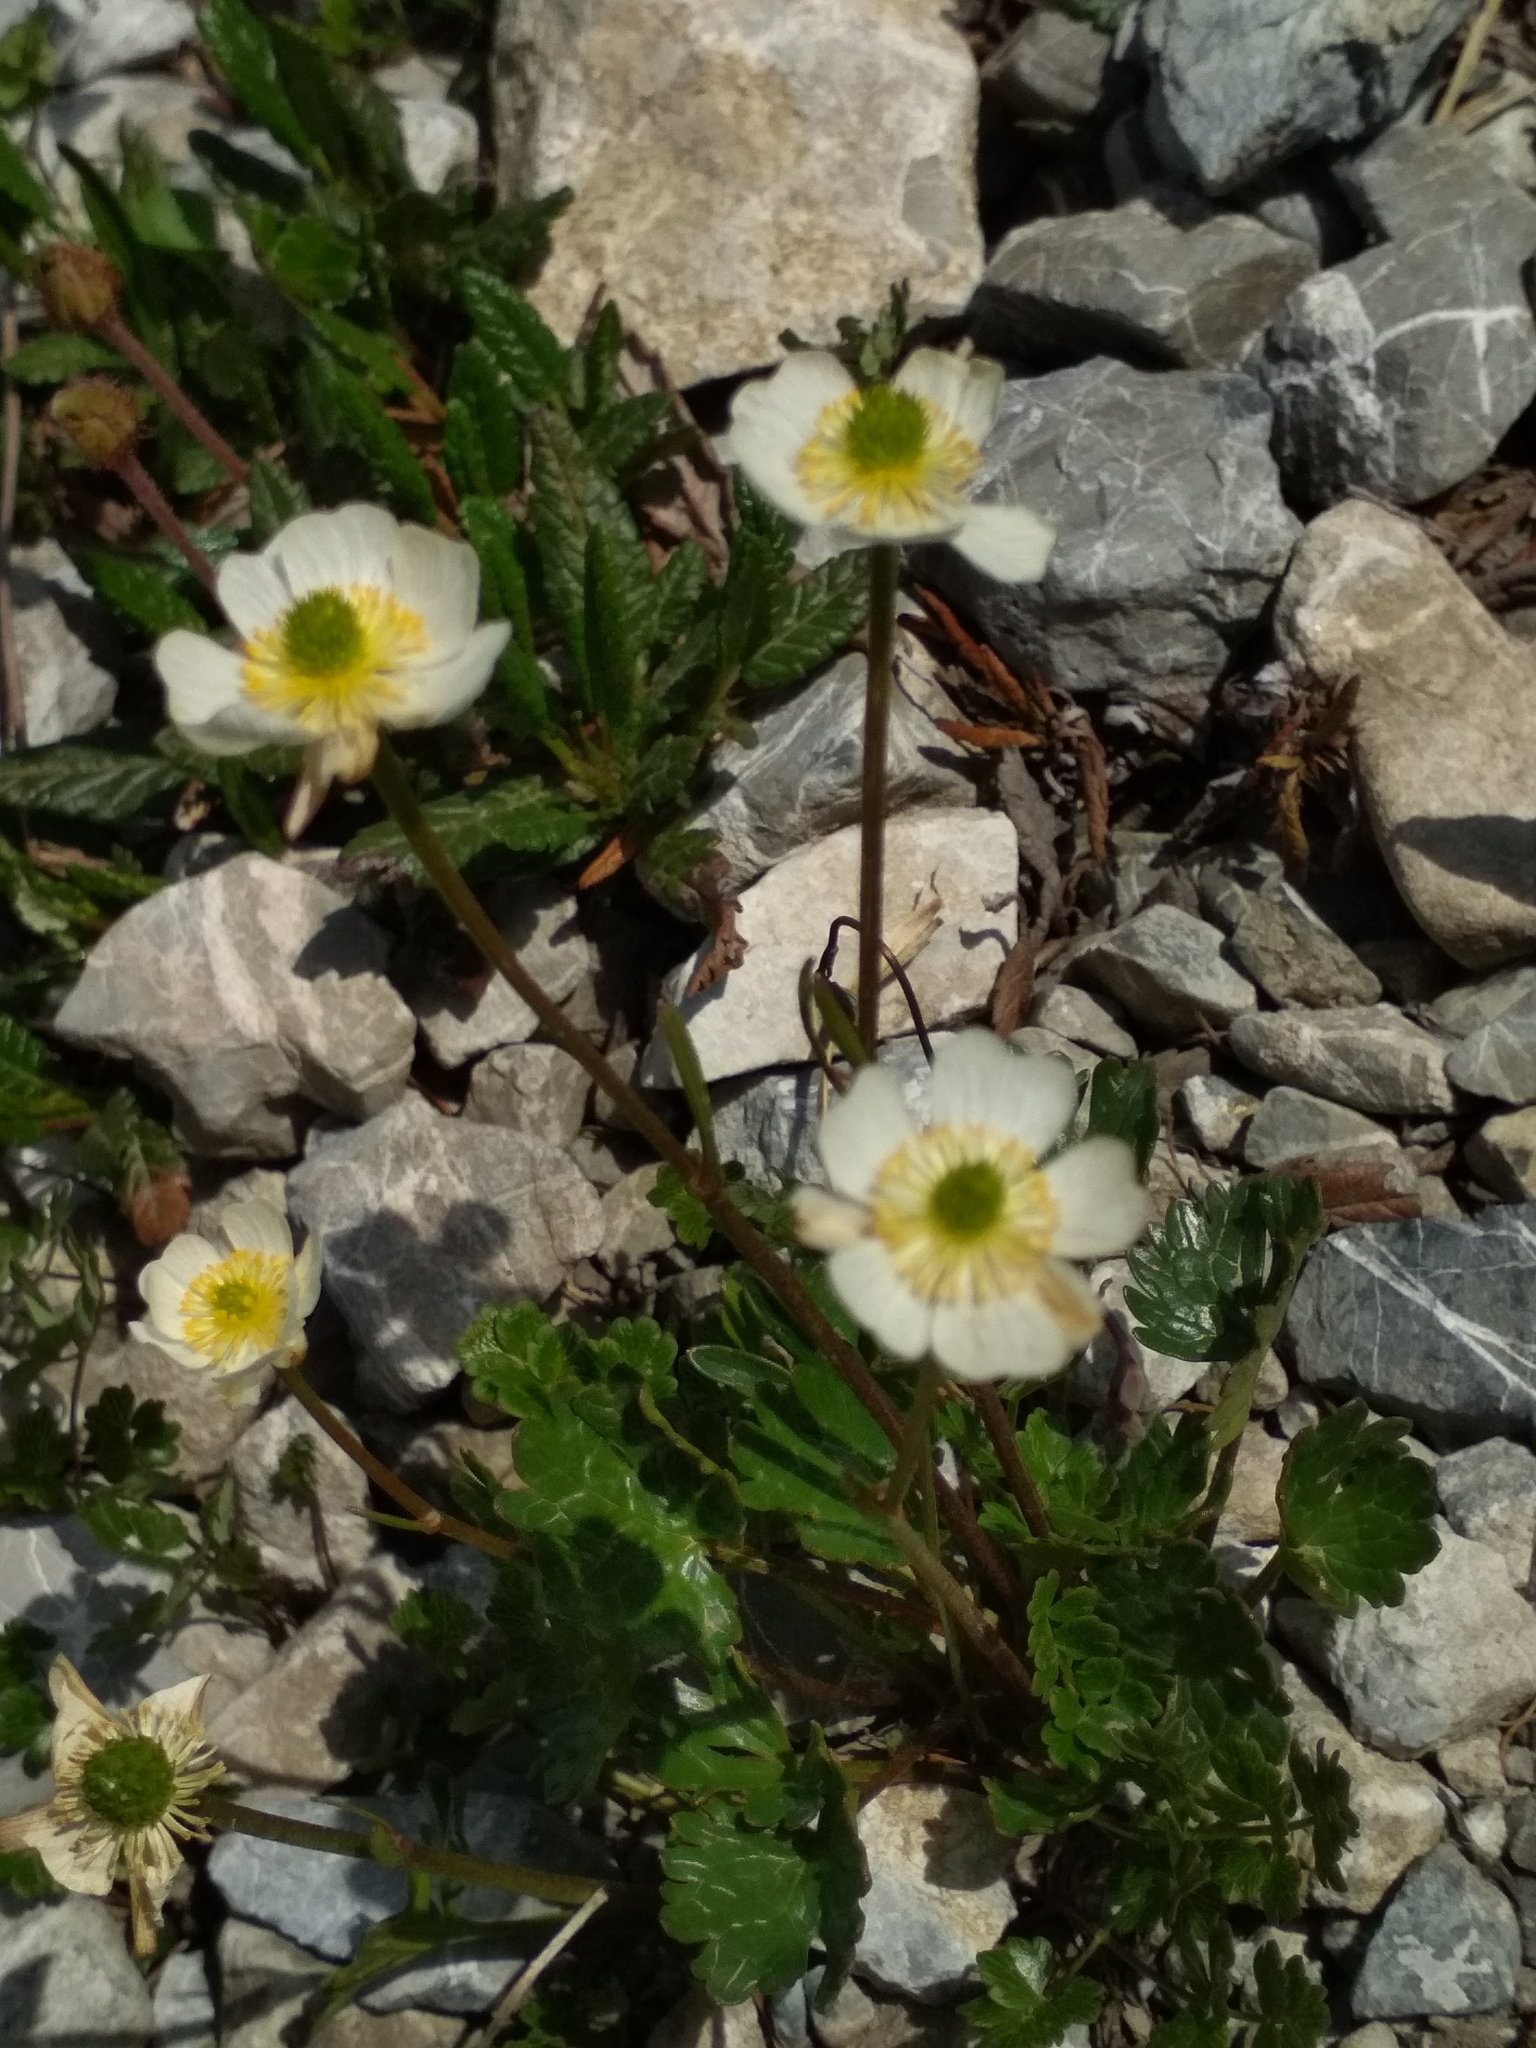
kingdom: Plantae
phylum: Tracheophyta
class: Magnoliopsida
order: Ranunculales
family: Ranunculaceae
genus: Ranunculus
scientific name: Ranunculus alpestris
